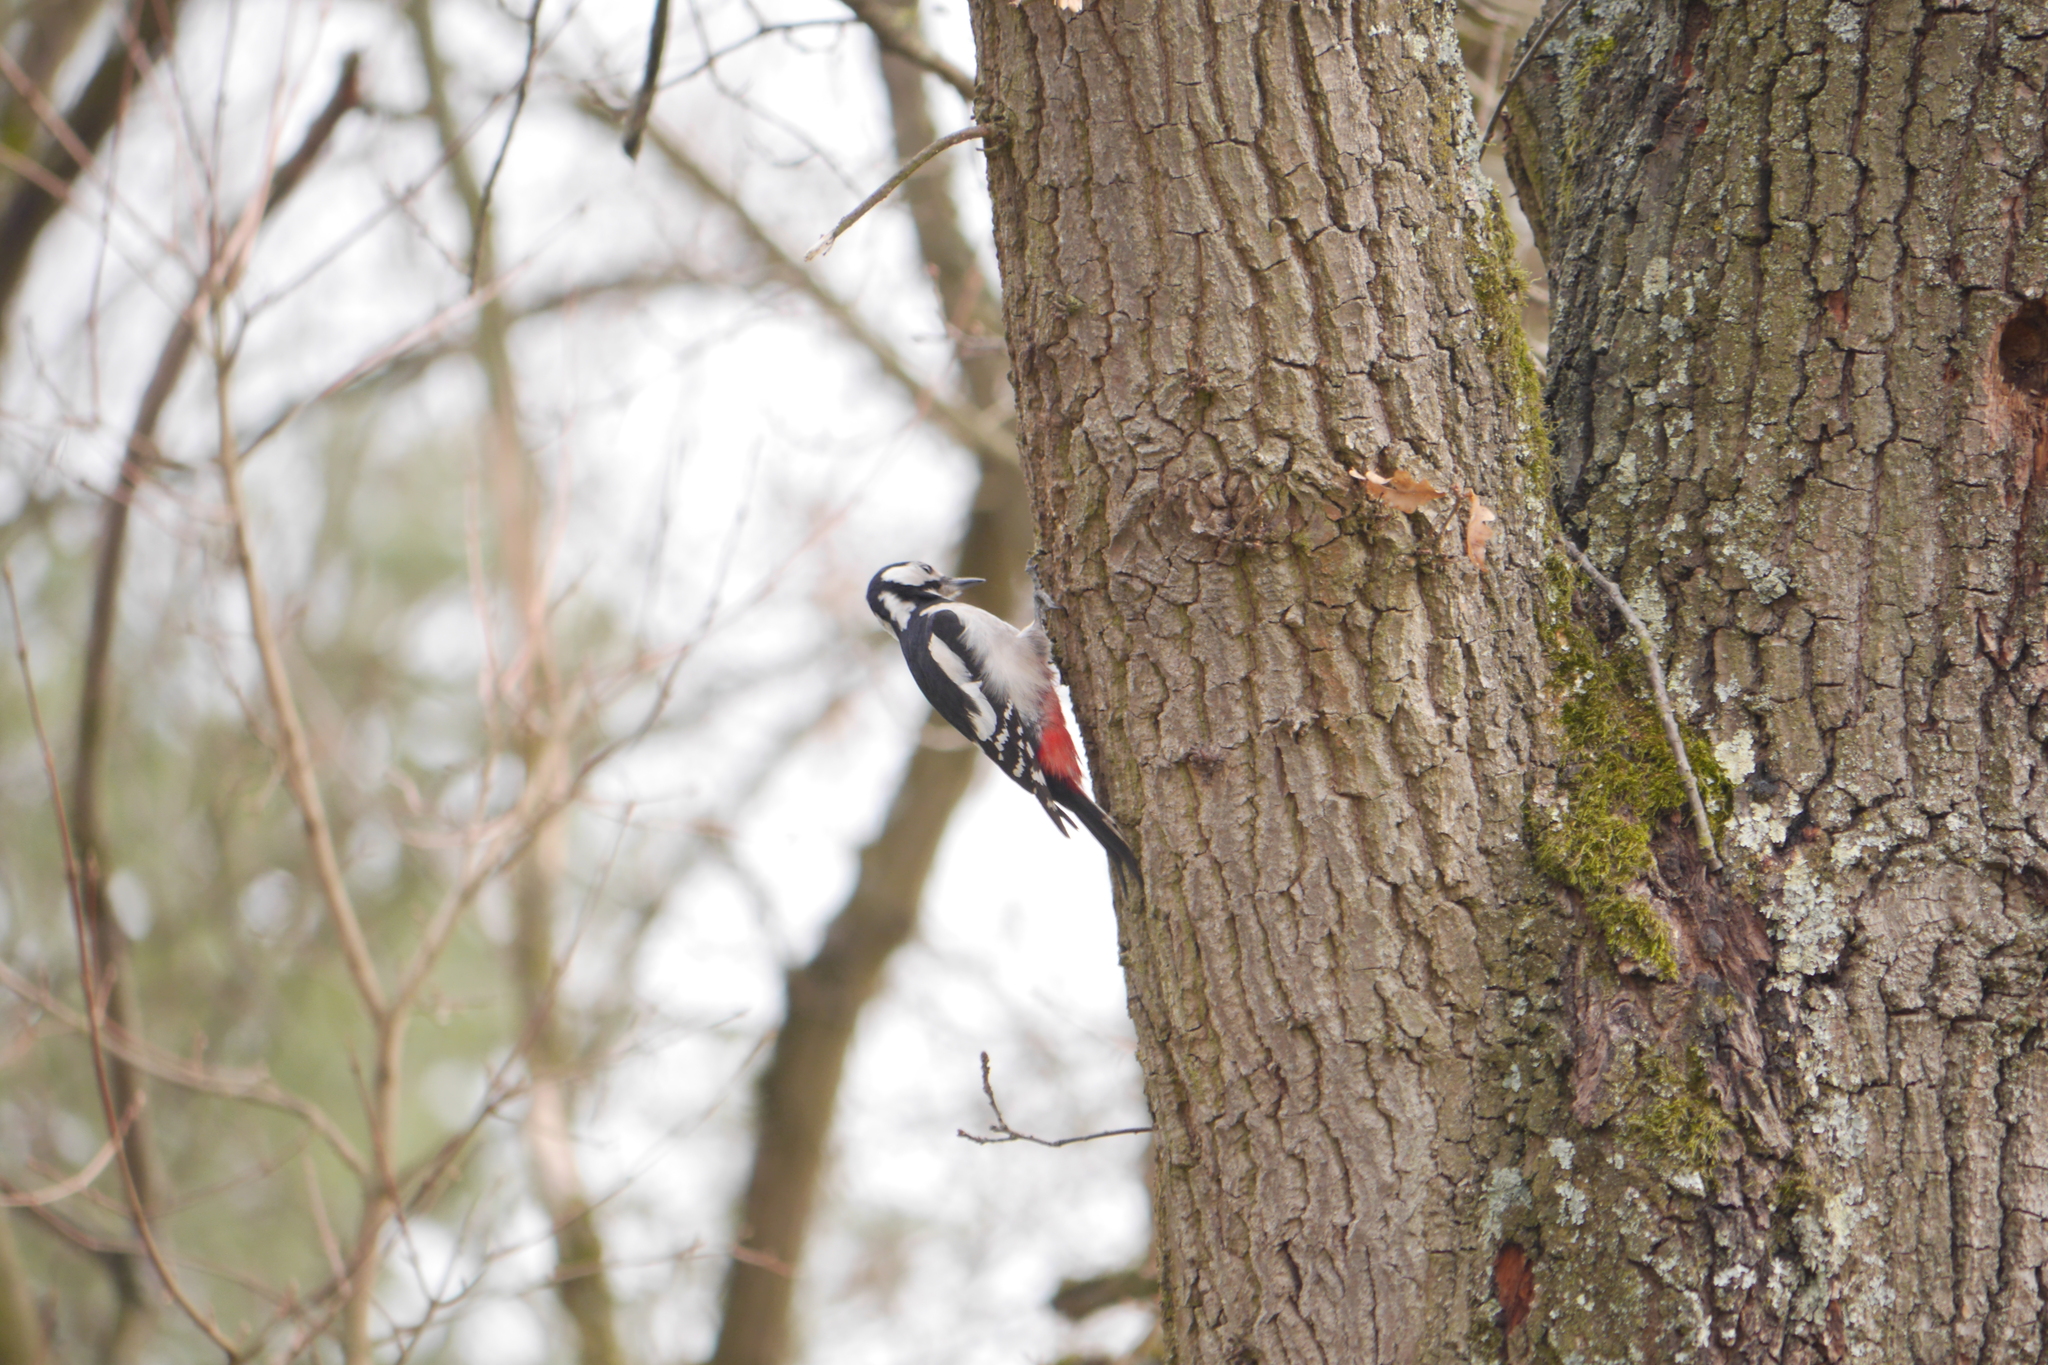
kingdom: Animalia
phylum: Chordata
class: Aves
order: Piciformes
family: Picidae
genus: Dendrocopos
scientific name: Dendrocopos major
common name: Great spotted woodpecker
